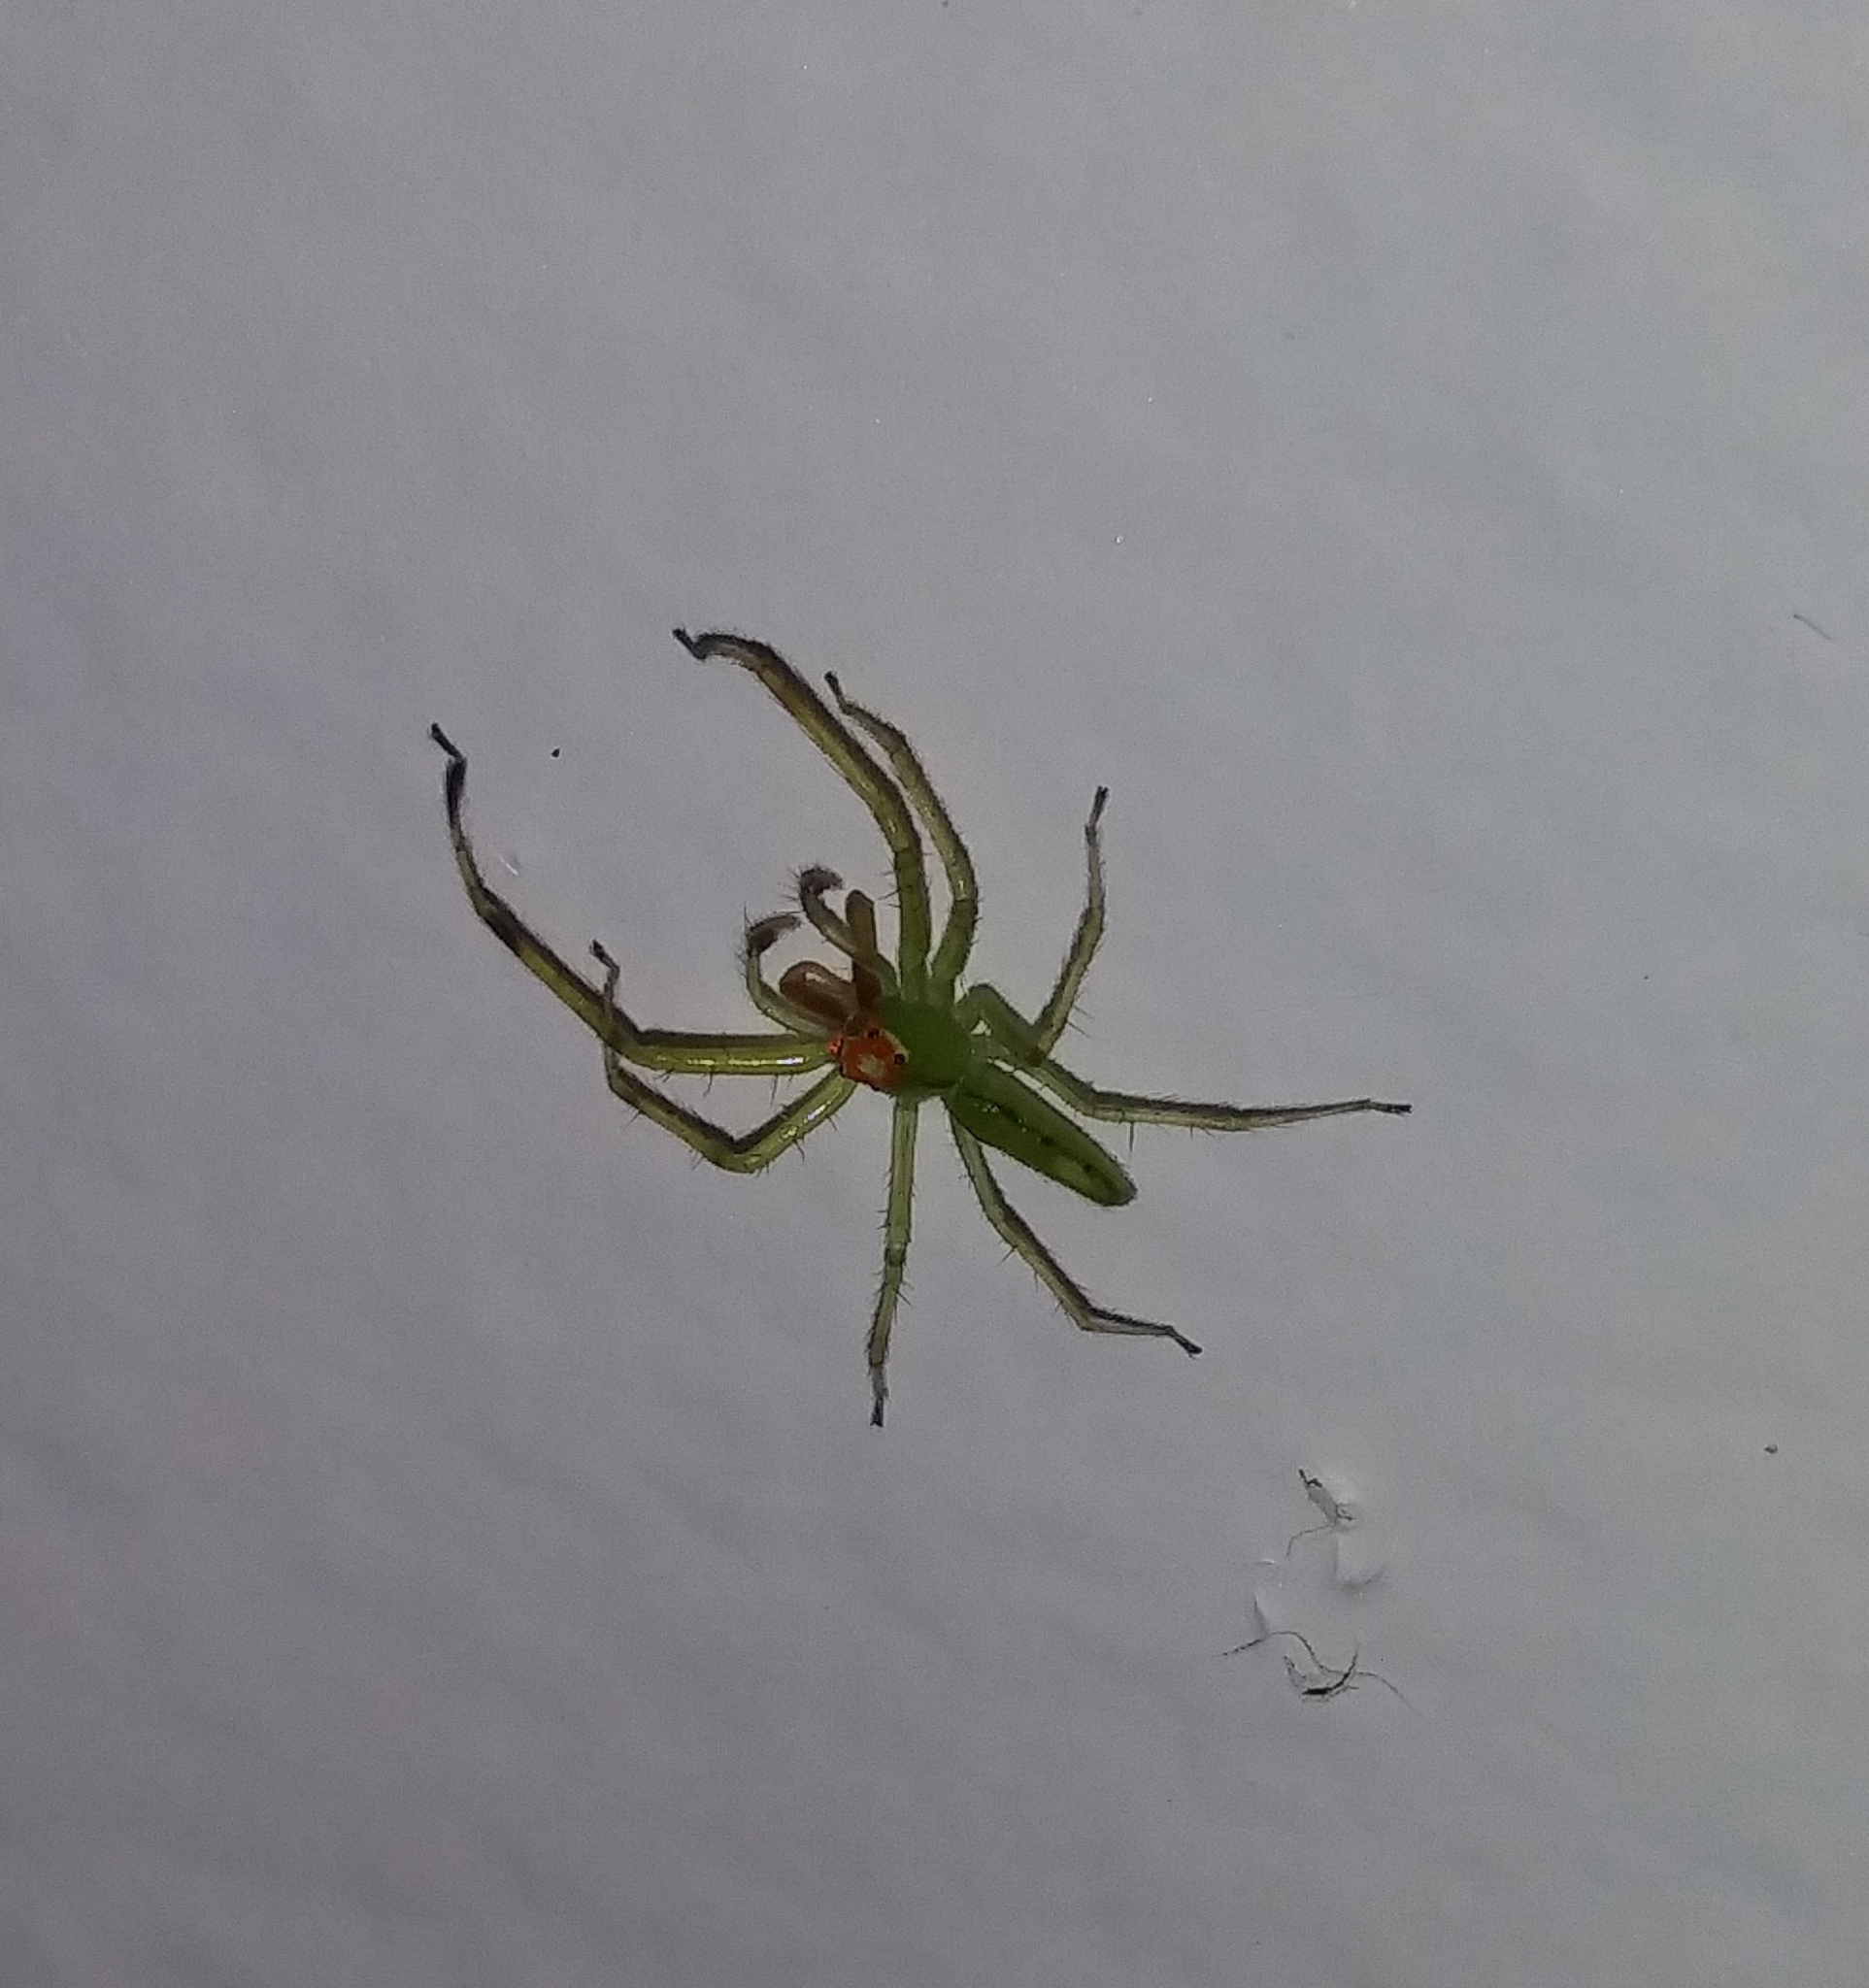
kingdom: Animalia
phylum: Arthropoda
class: Arachnida
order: Araneae
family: Salticidae
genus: Lyssomanes
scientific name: Lyssomanes viridis
